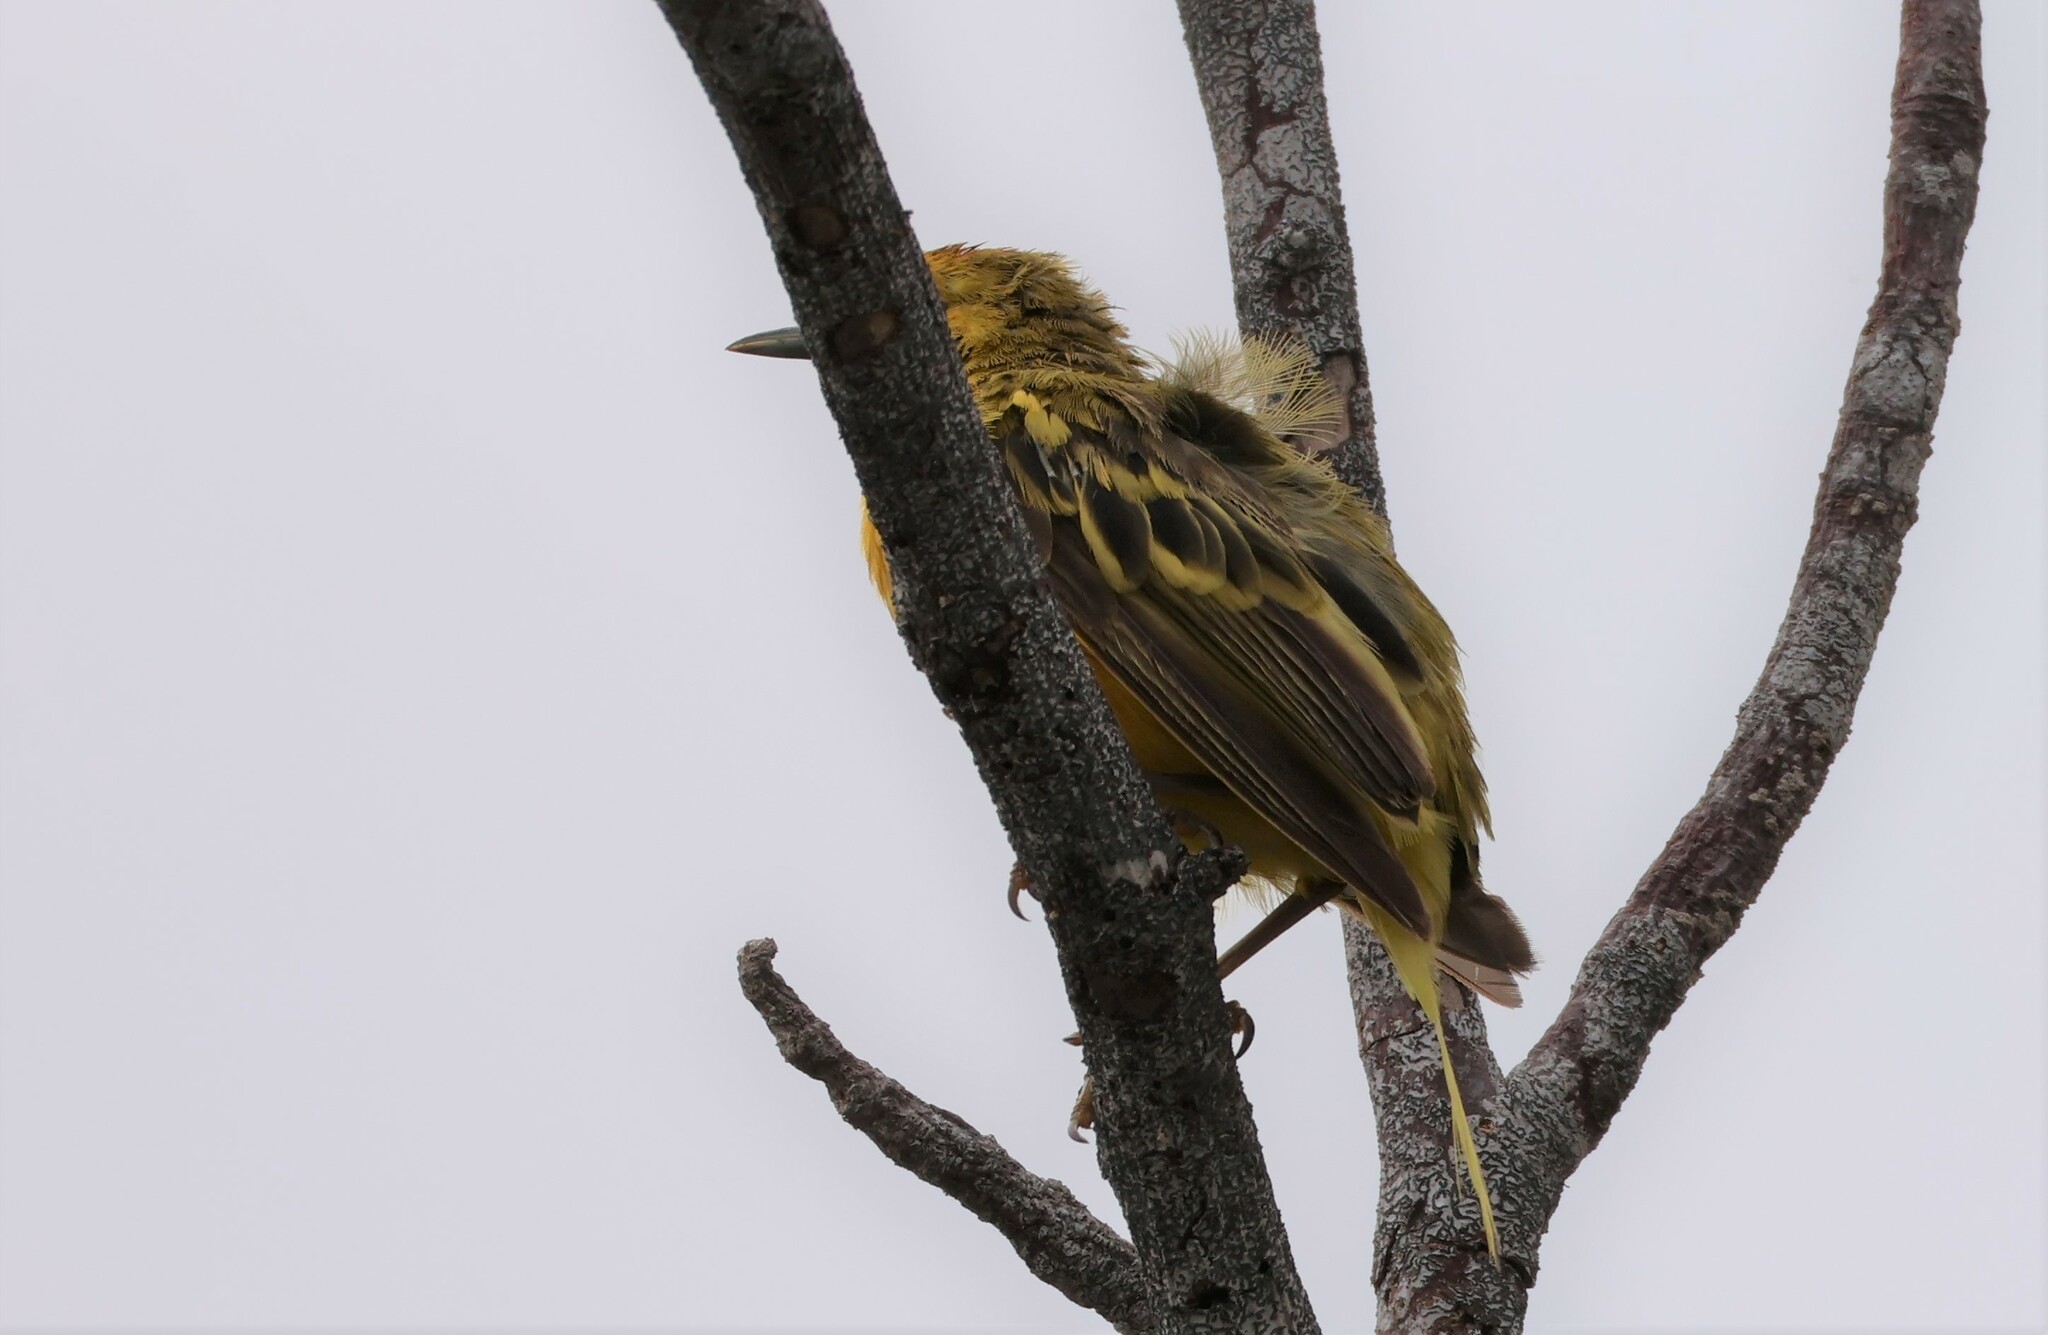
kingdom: Animalia
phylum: Chordata
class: Aves
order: Passeriformes
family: Parulidae
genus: Setophaga
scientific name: Setophaga petechia
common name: Yellow warbler
